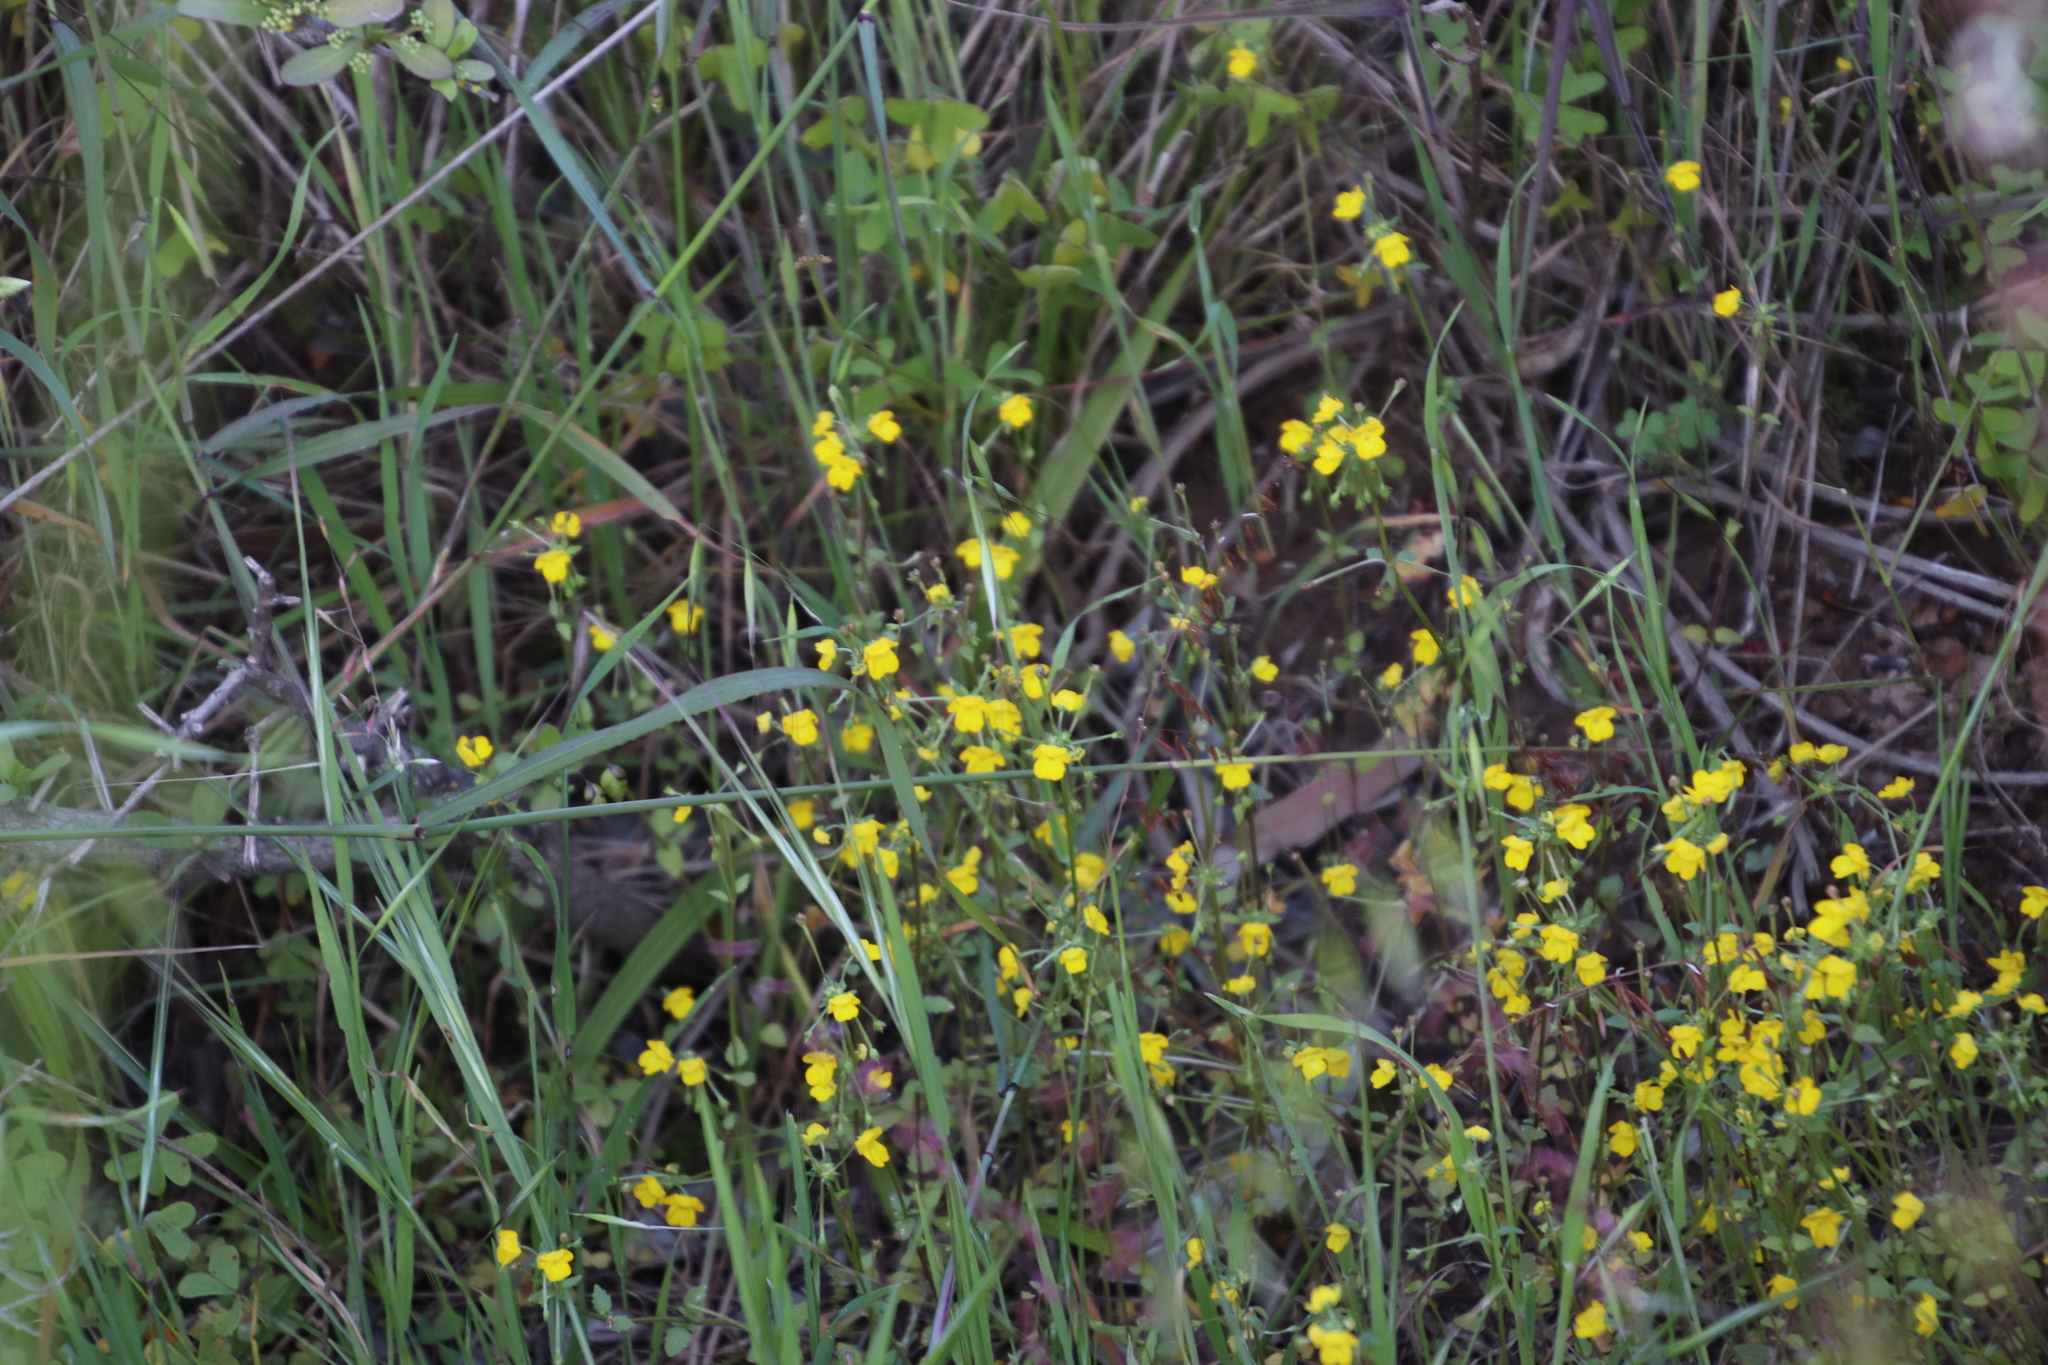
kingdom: Plantae
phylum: Tracheophyta
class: Magnoliopsida
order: Lamiales
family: Scrophulariaceae
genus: Hemimeris
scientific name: Hemimeris racemosa
